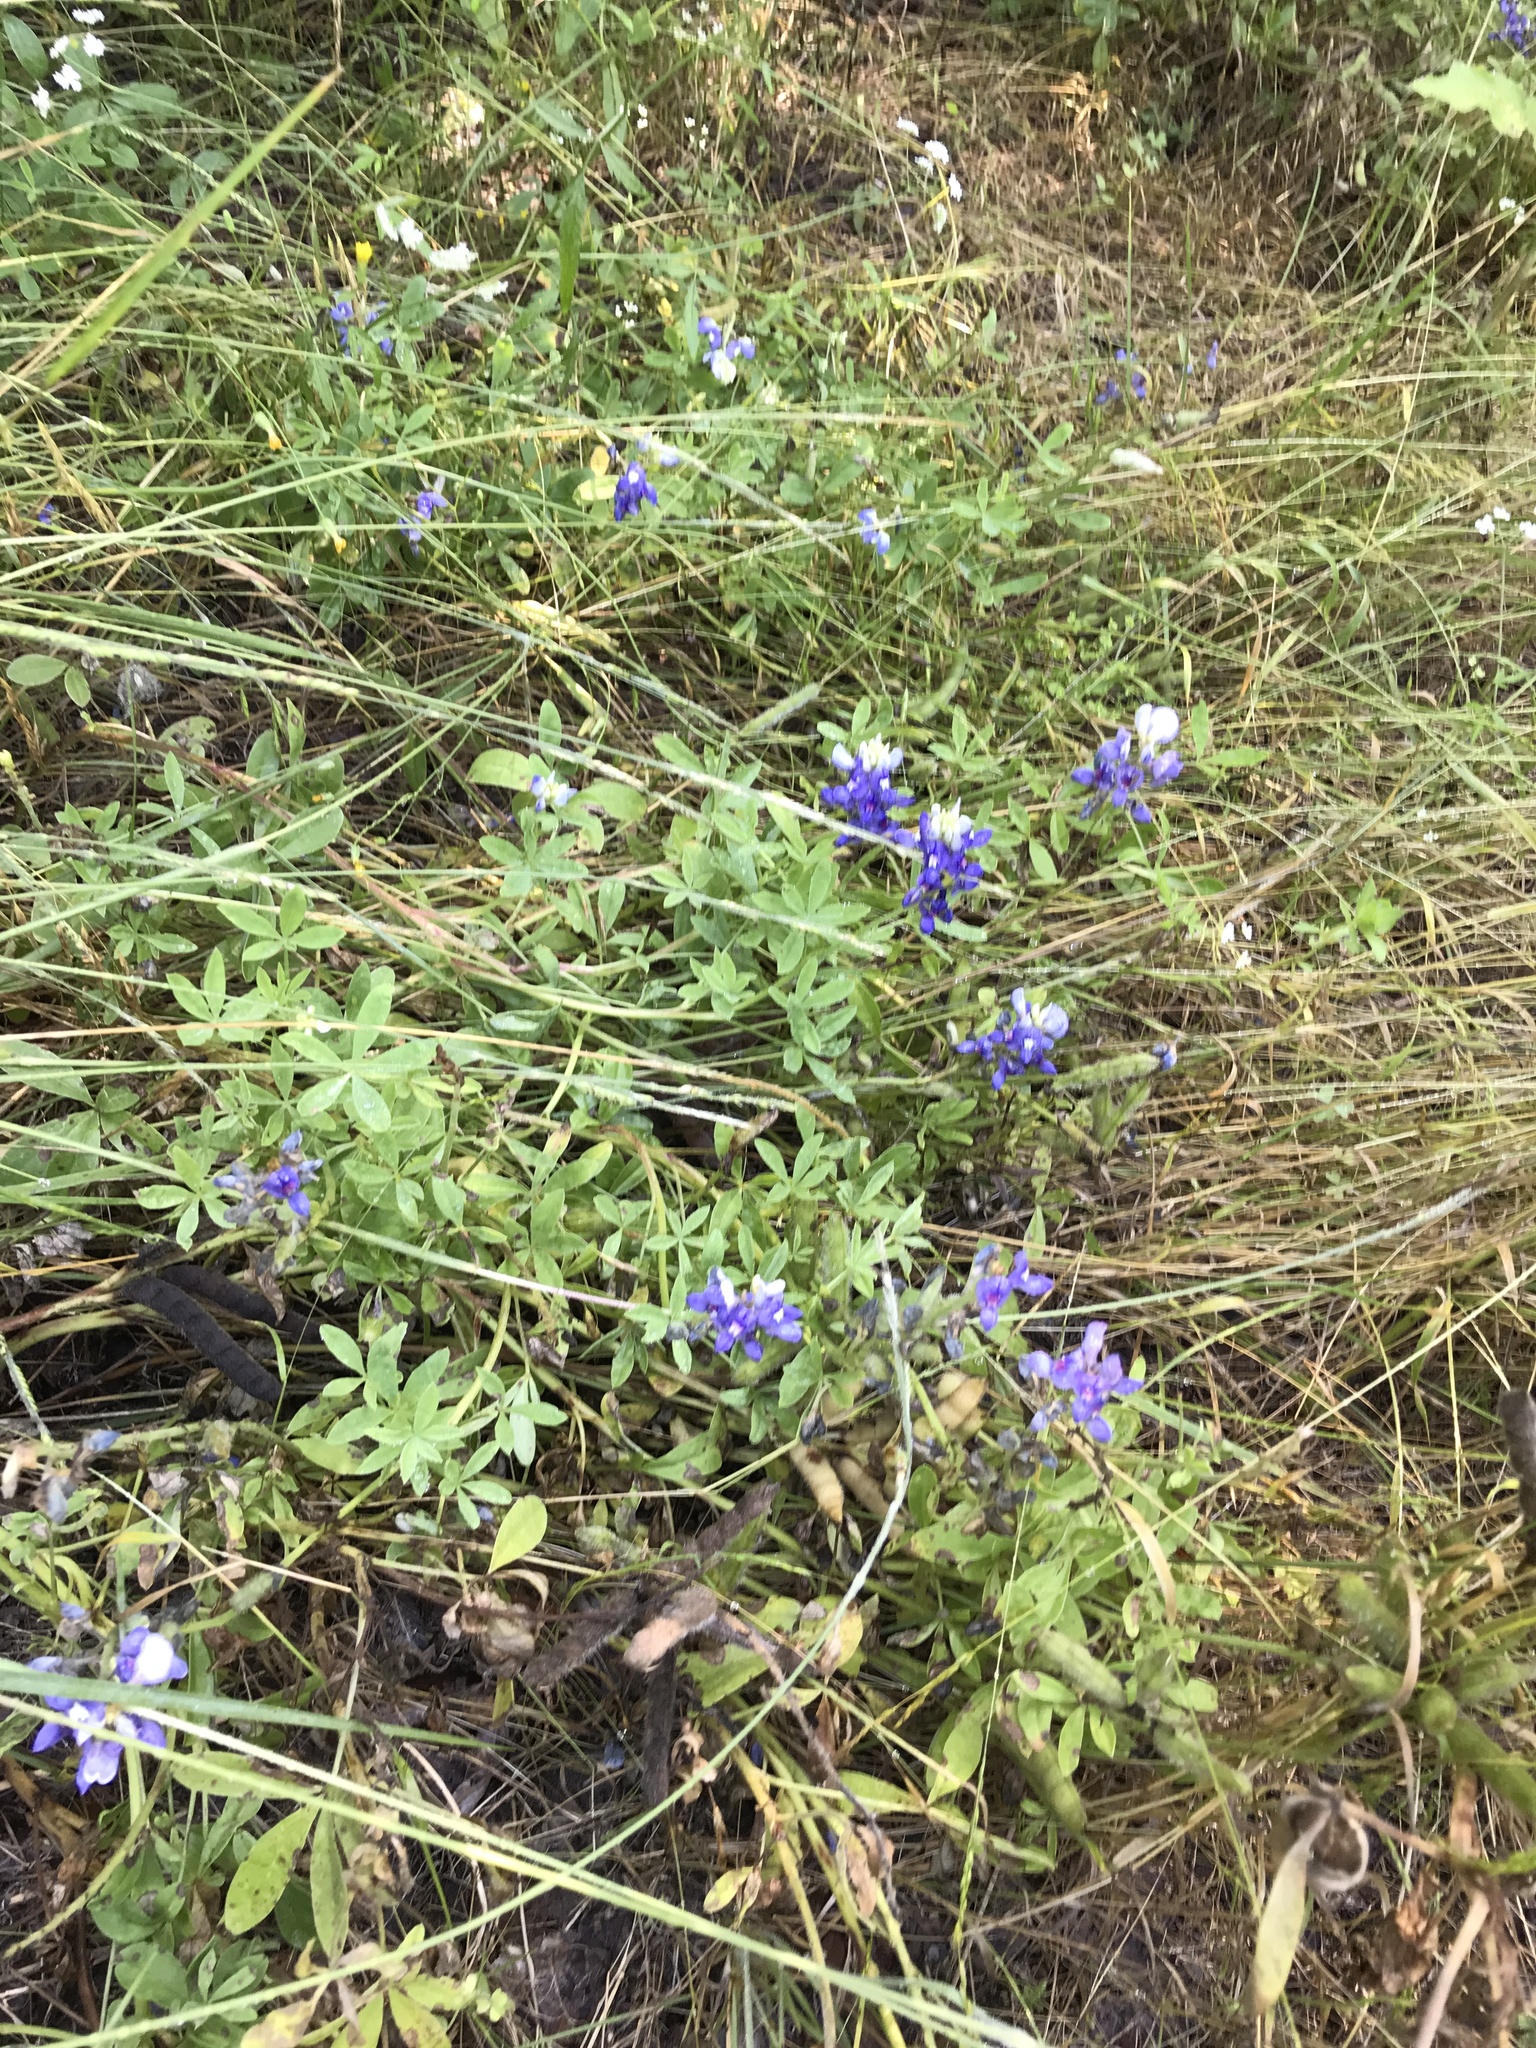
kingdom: Plantae
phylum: Tracheophyta
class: Magnoliopsida
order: Fabales
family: Fabaceae
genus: Lupinus
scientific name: Lupinus texensis
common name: Texas bluebonnet
